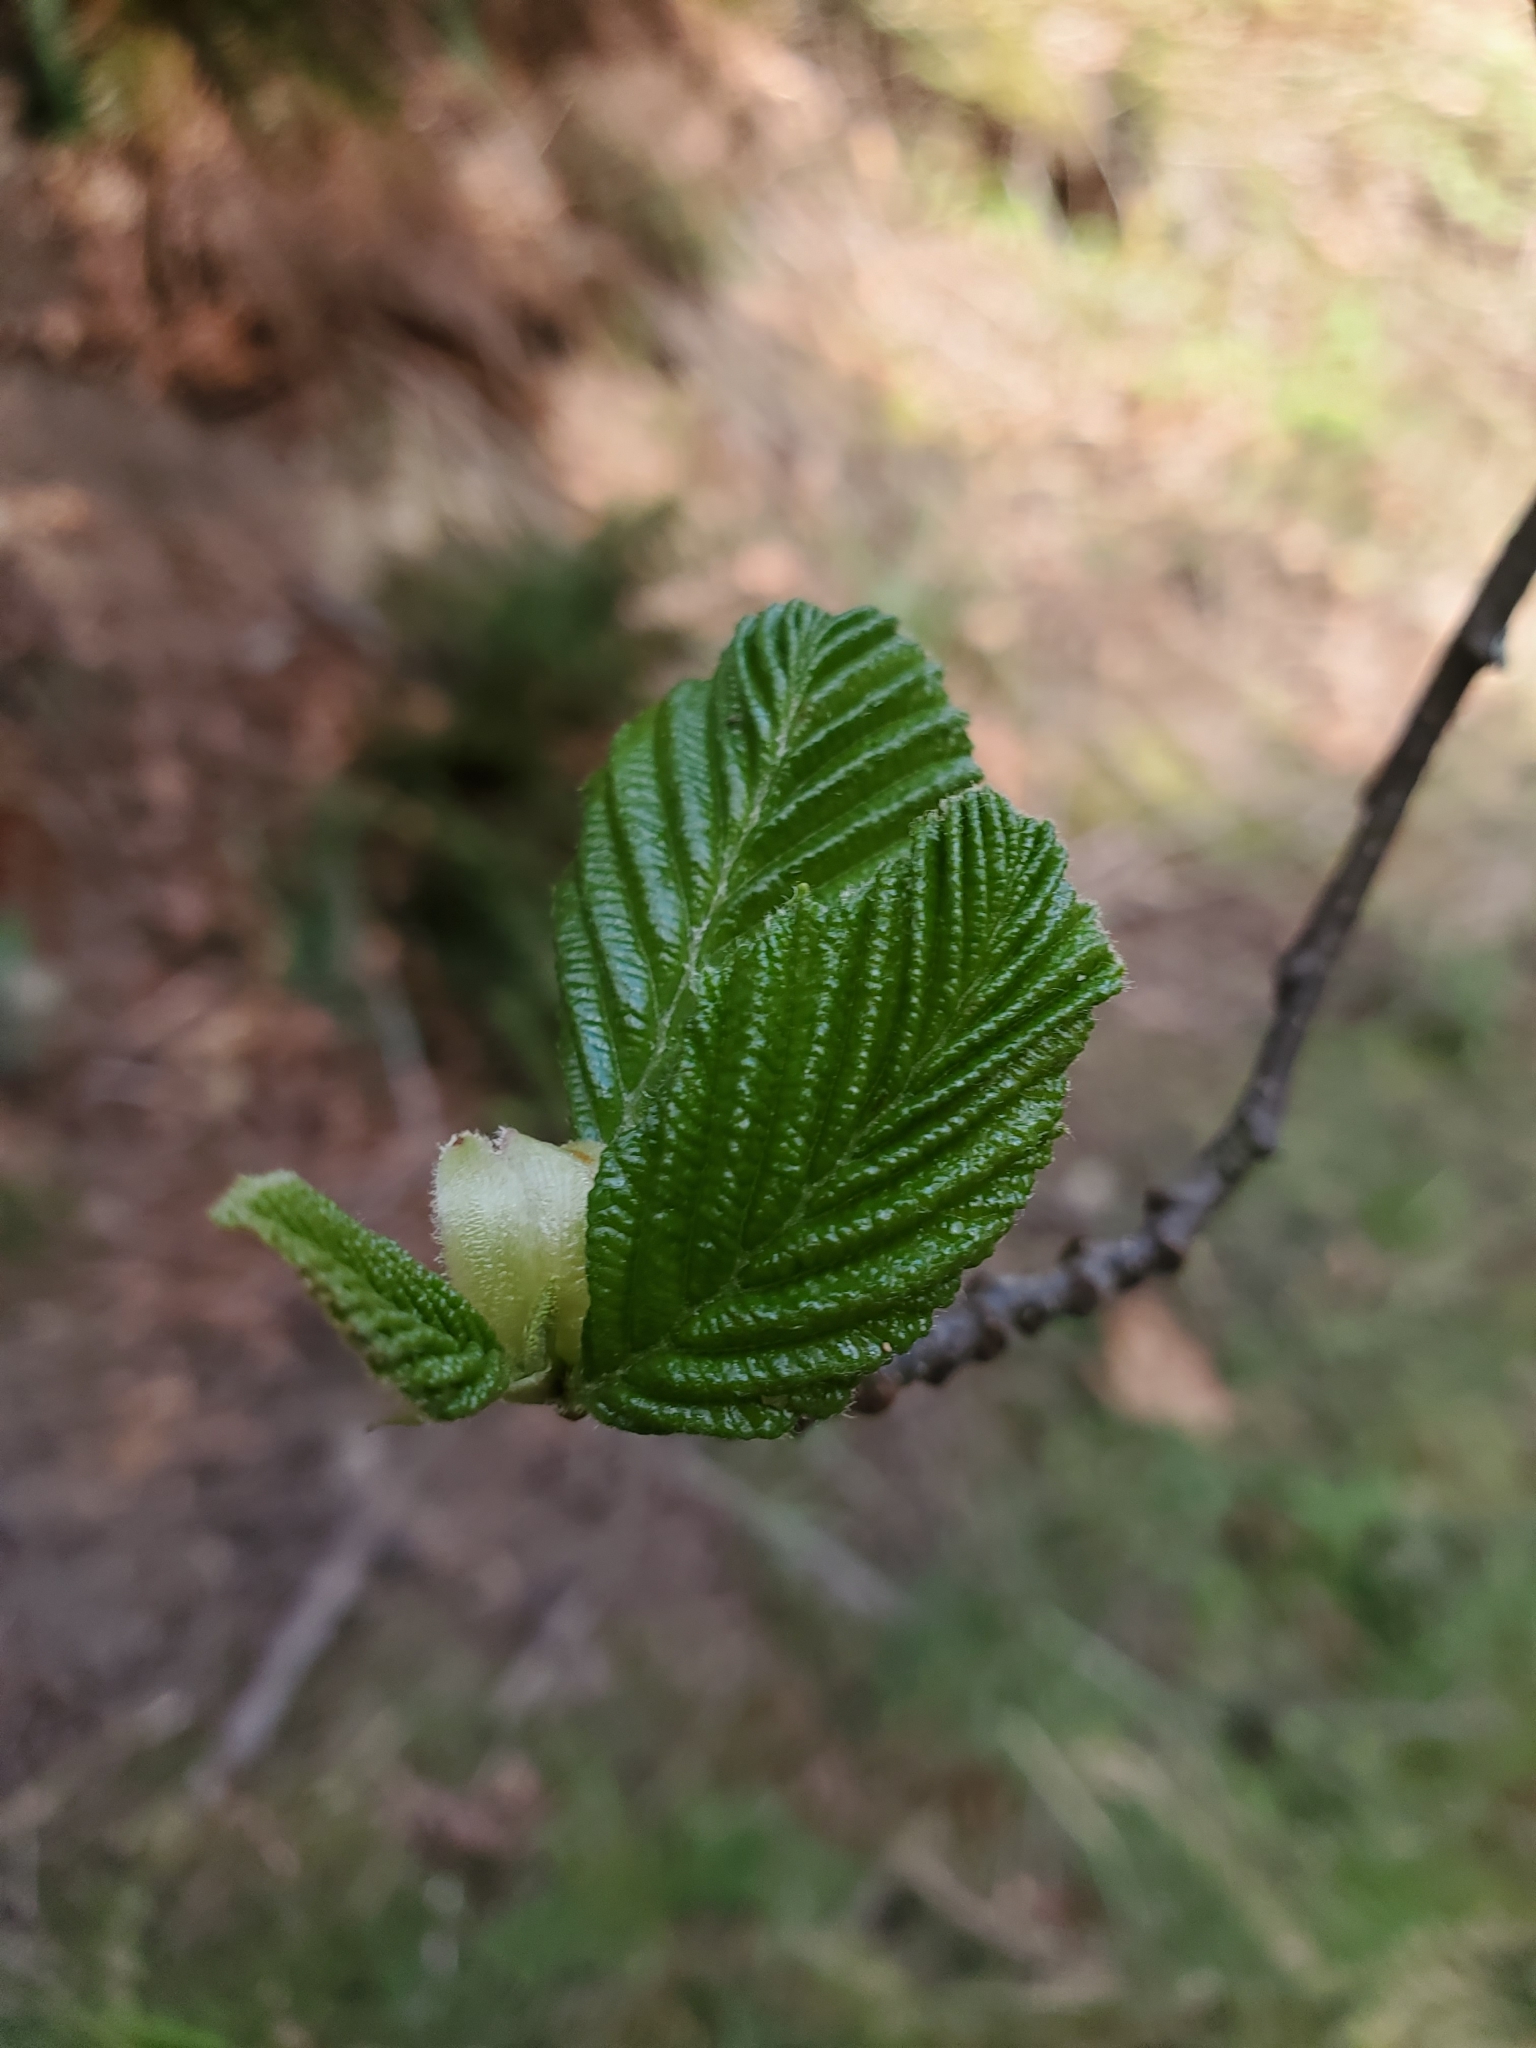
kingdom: Plantae
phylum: Tracheophyta
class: Magnoliopsida
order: Fagales
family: Betulaceae
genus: Alnus
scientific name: Alnus rubra
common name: Red alder
